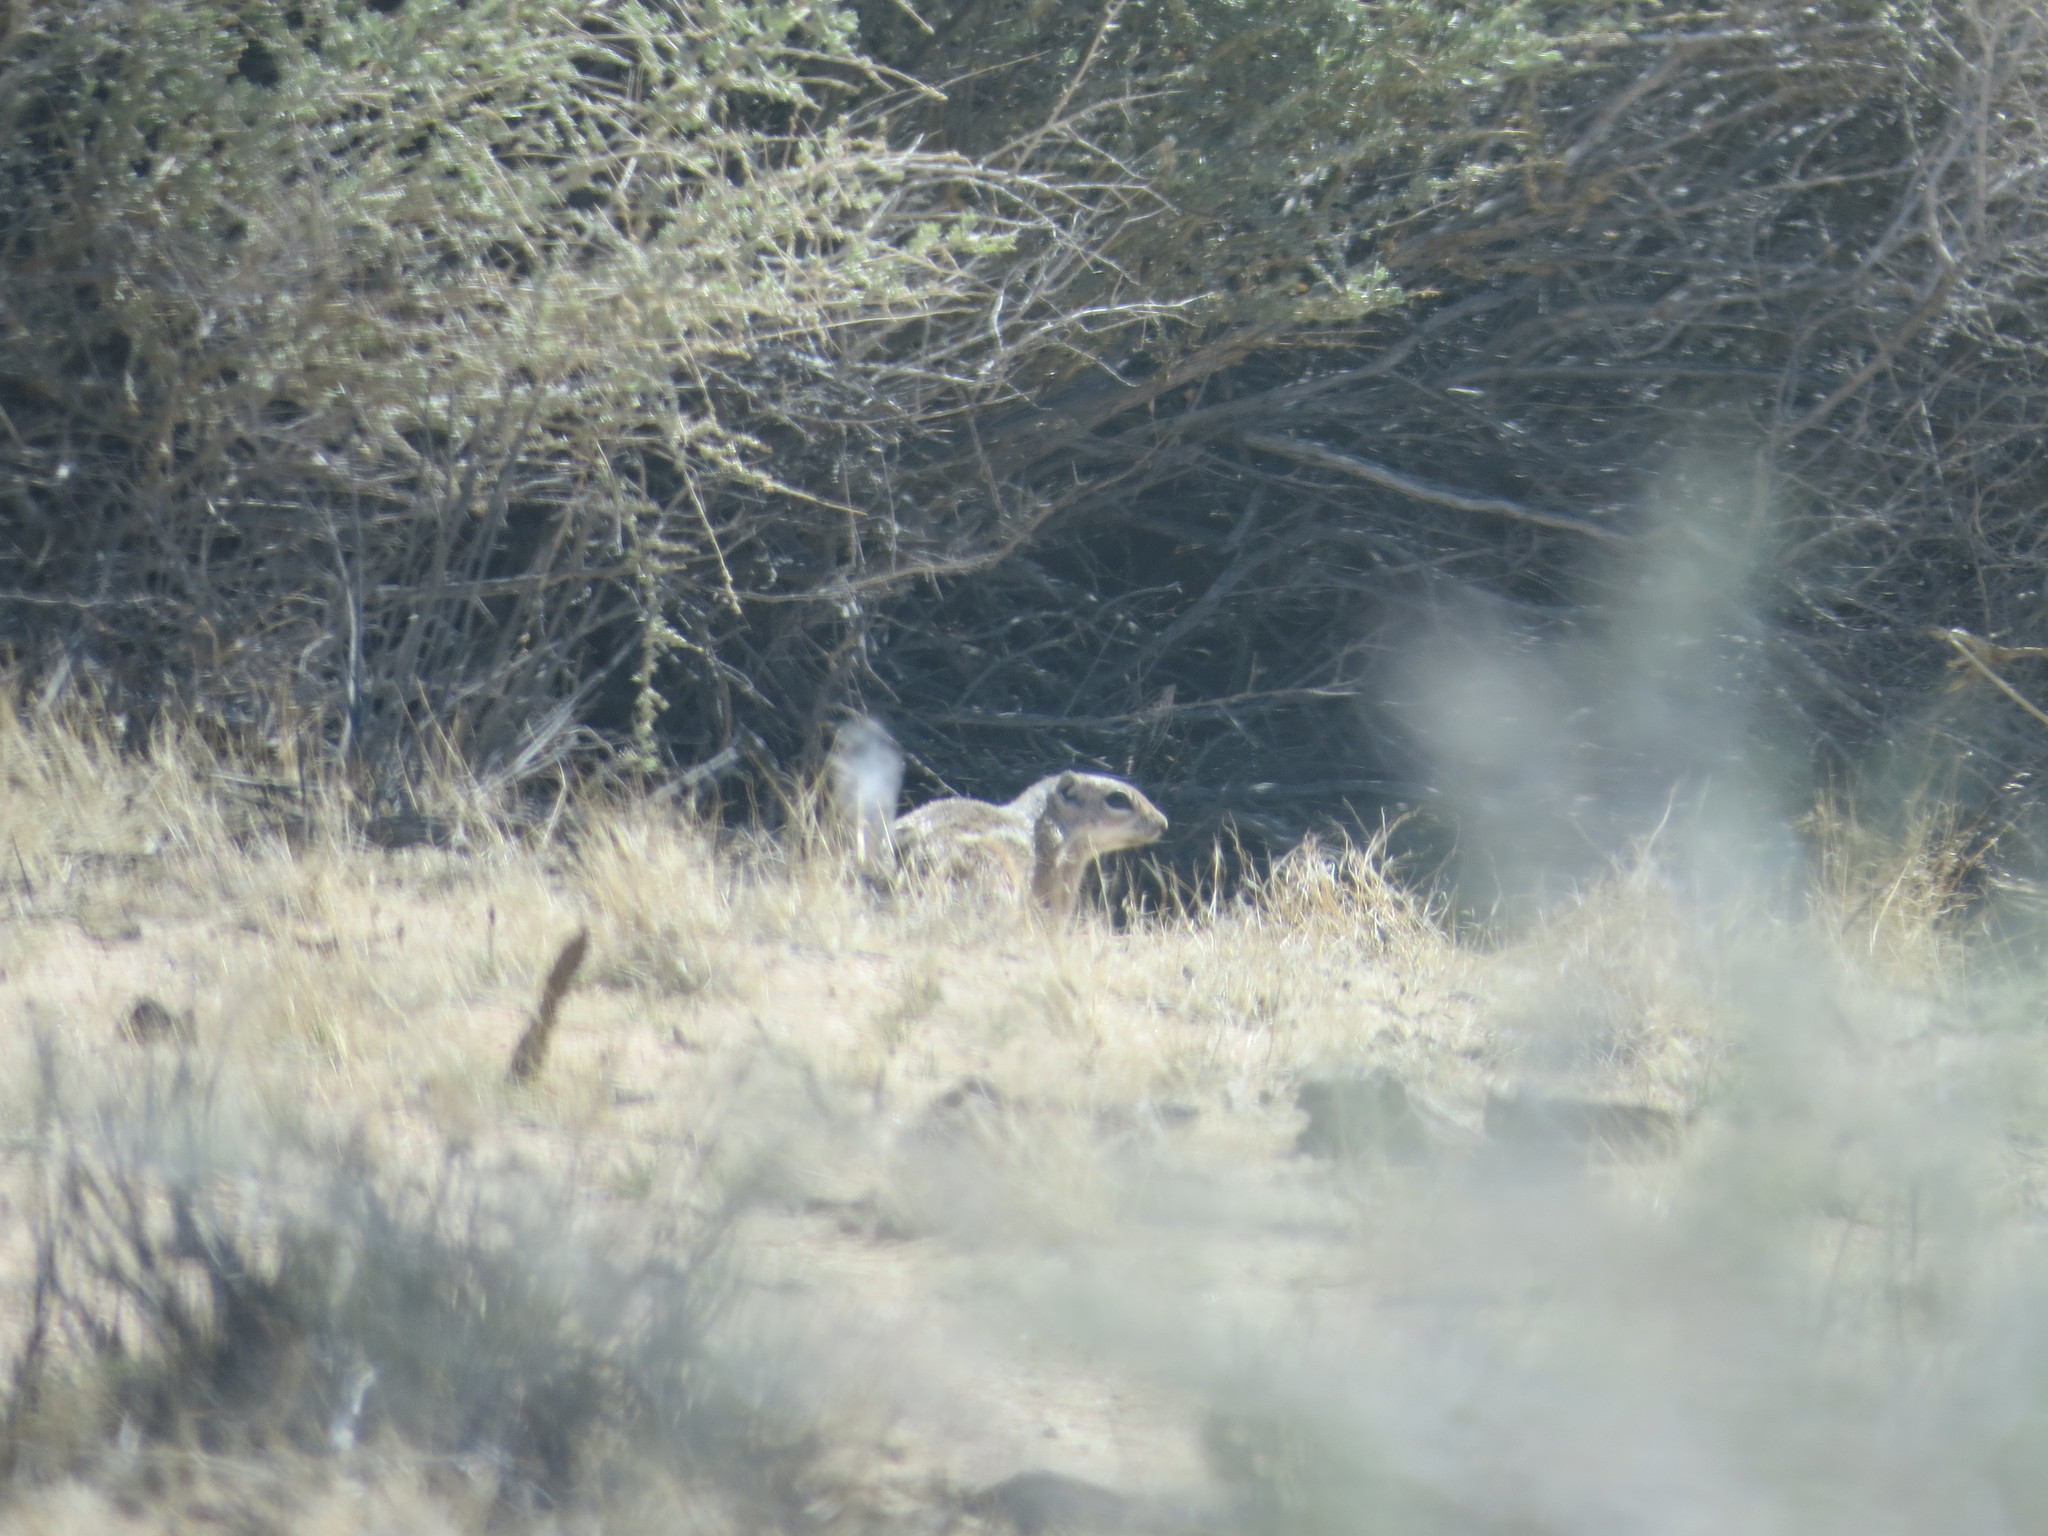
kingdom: Animalia
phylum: Chordata
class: Mammalia
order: Rodentia
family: Sciuridae
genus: Ammospermophilus
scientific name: Ammospermophilus leucurus
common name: White-tailed antelope squirrel
